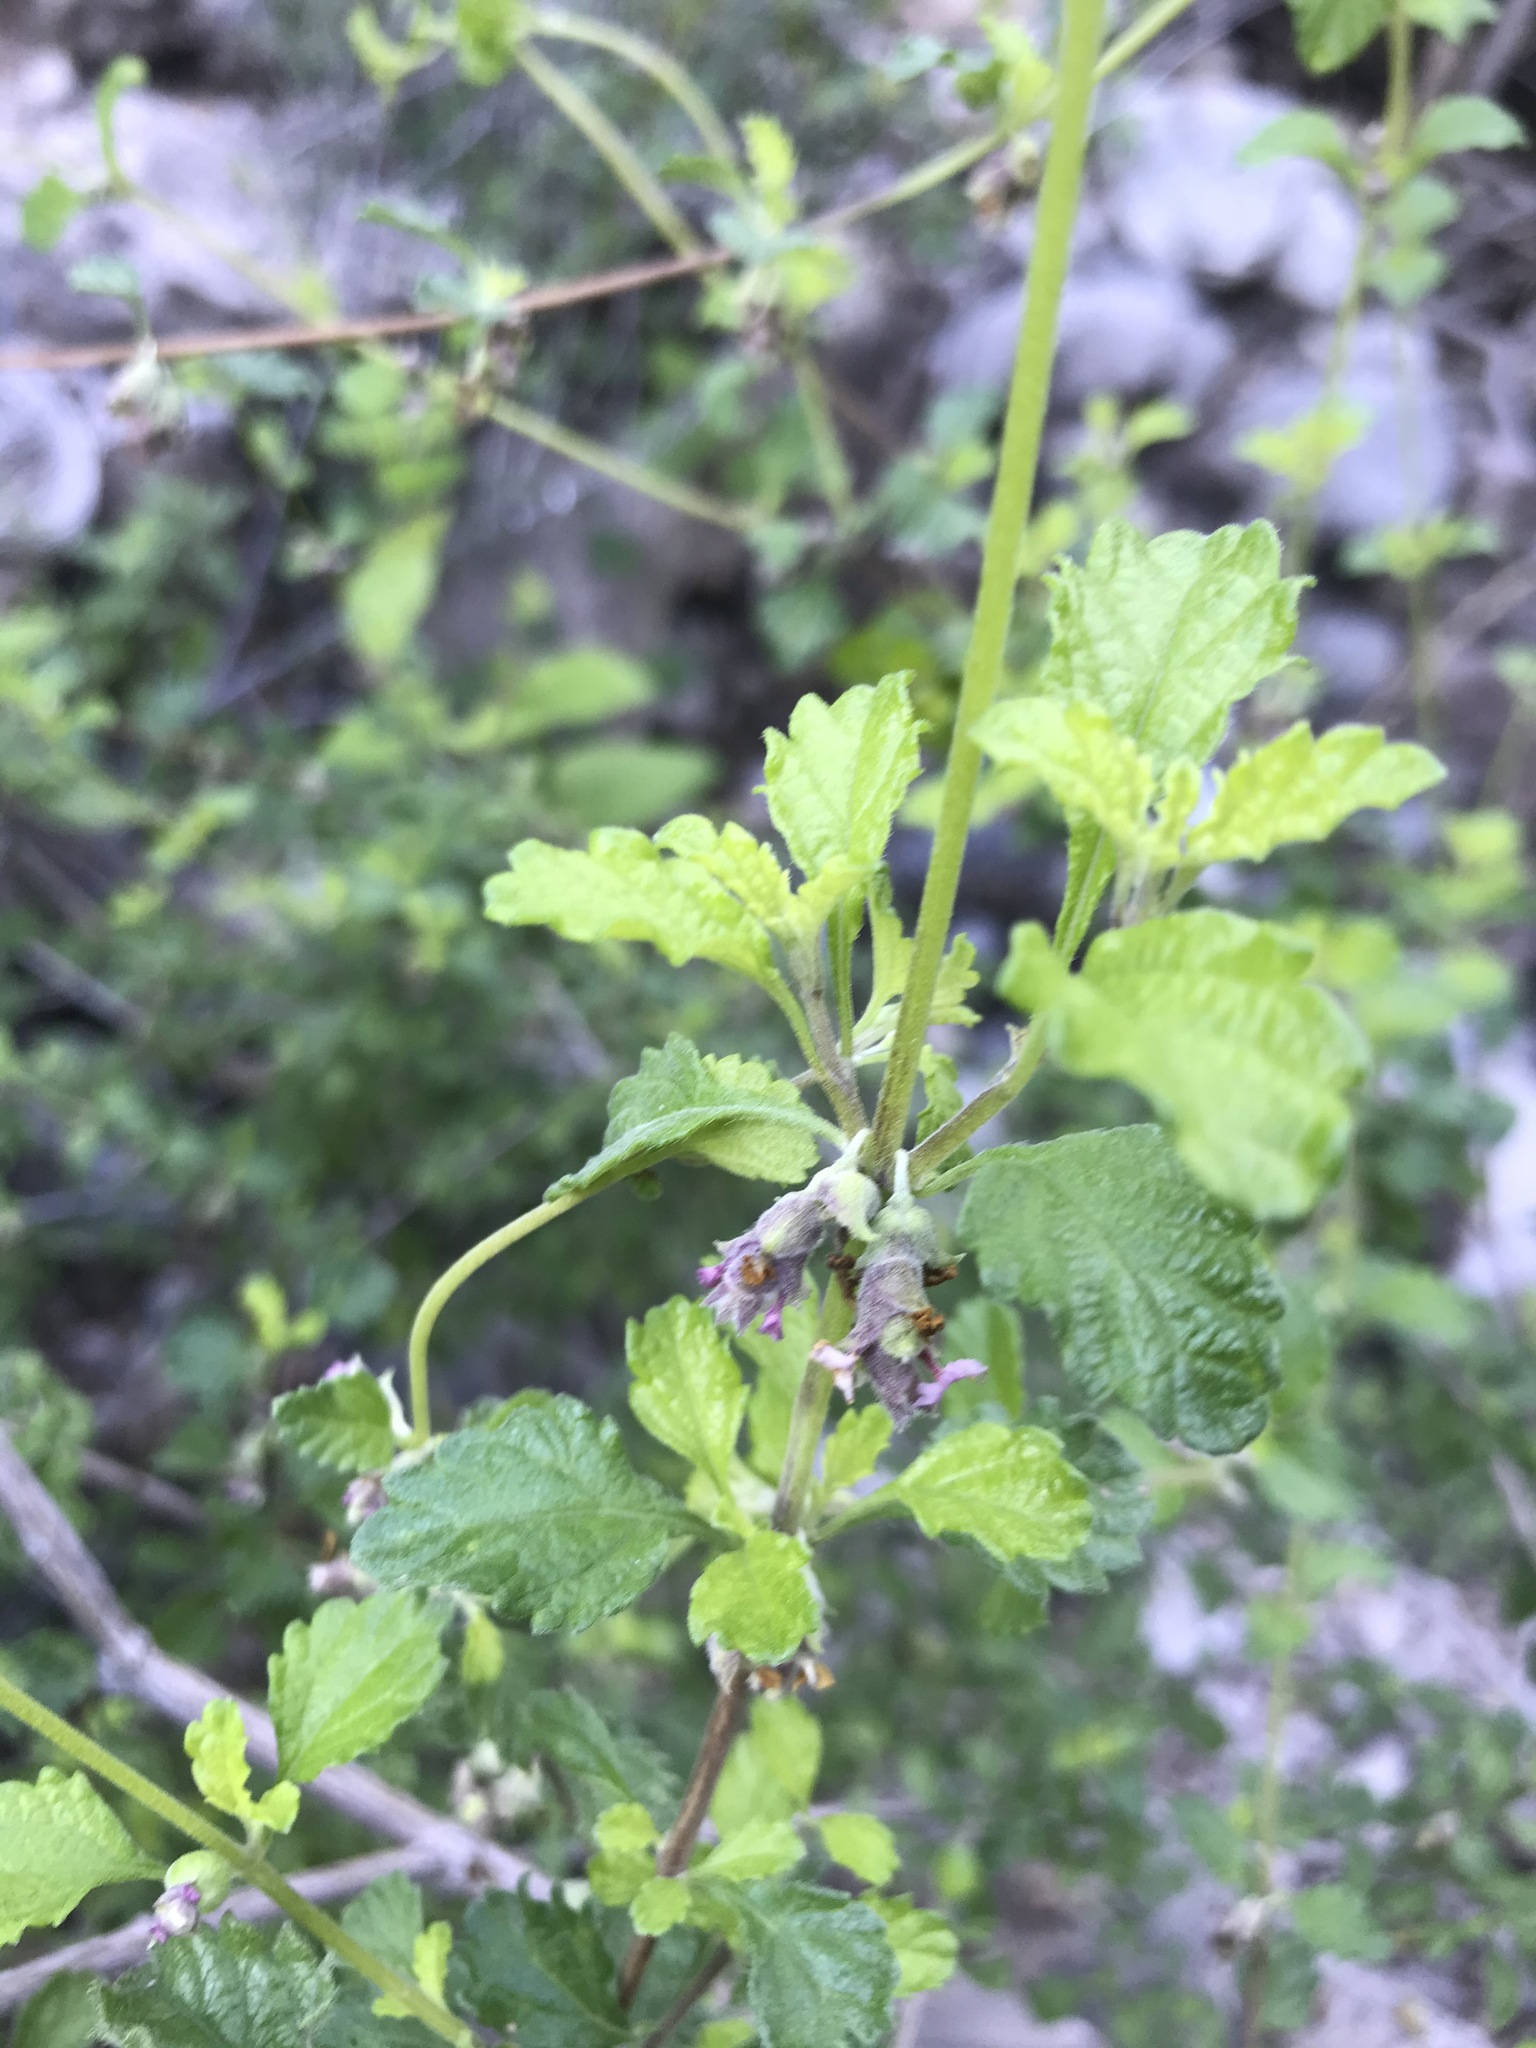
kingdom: Plantae
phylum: Tracheophyta
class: Magnoliopsida
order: Lamiales
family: Verbenaceae
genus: Lippia
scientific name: Lippia origanoides
